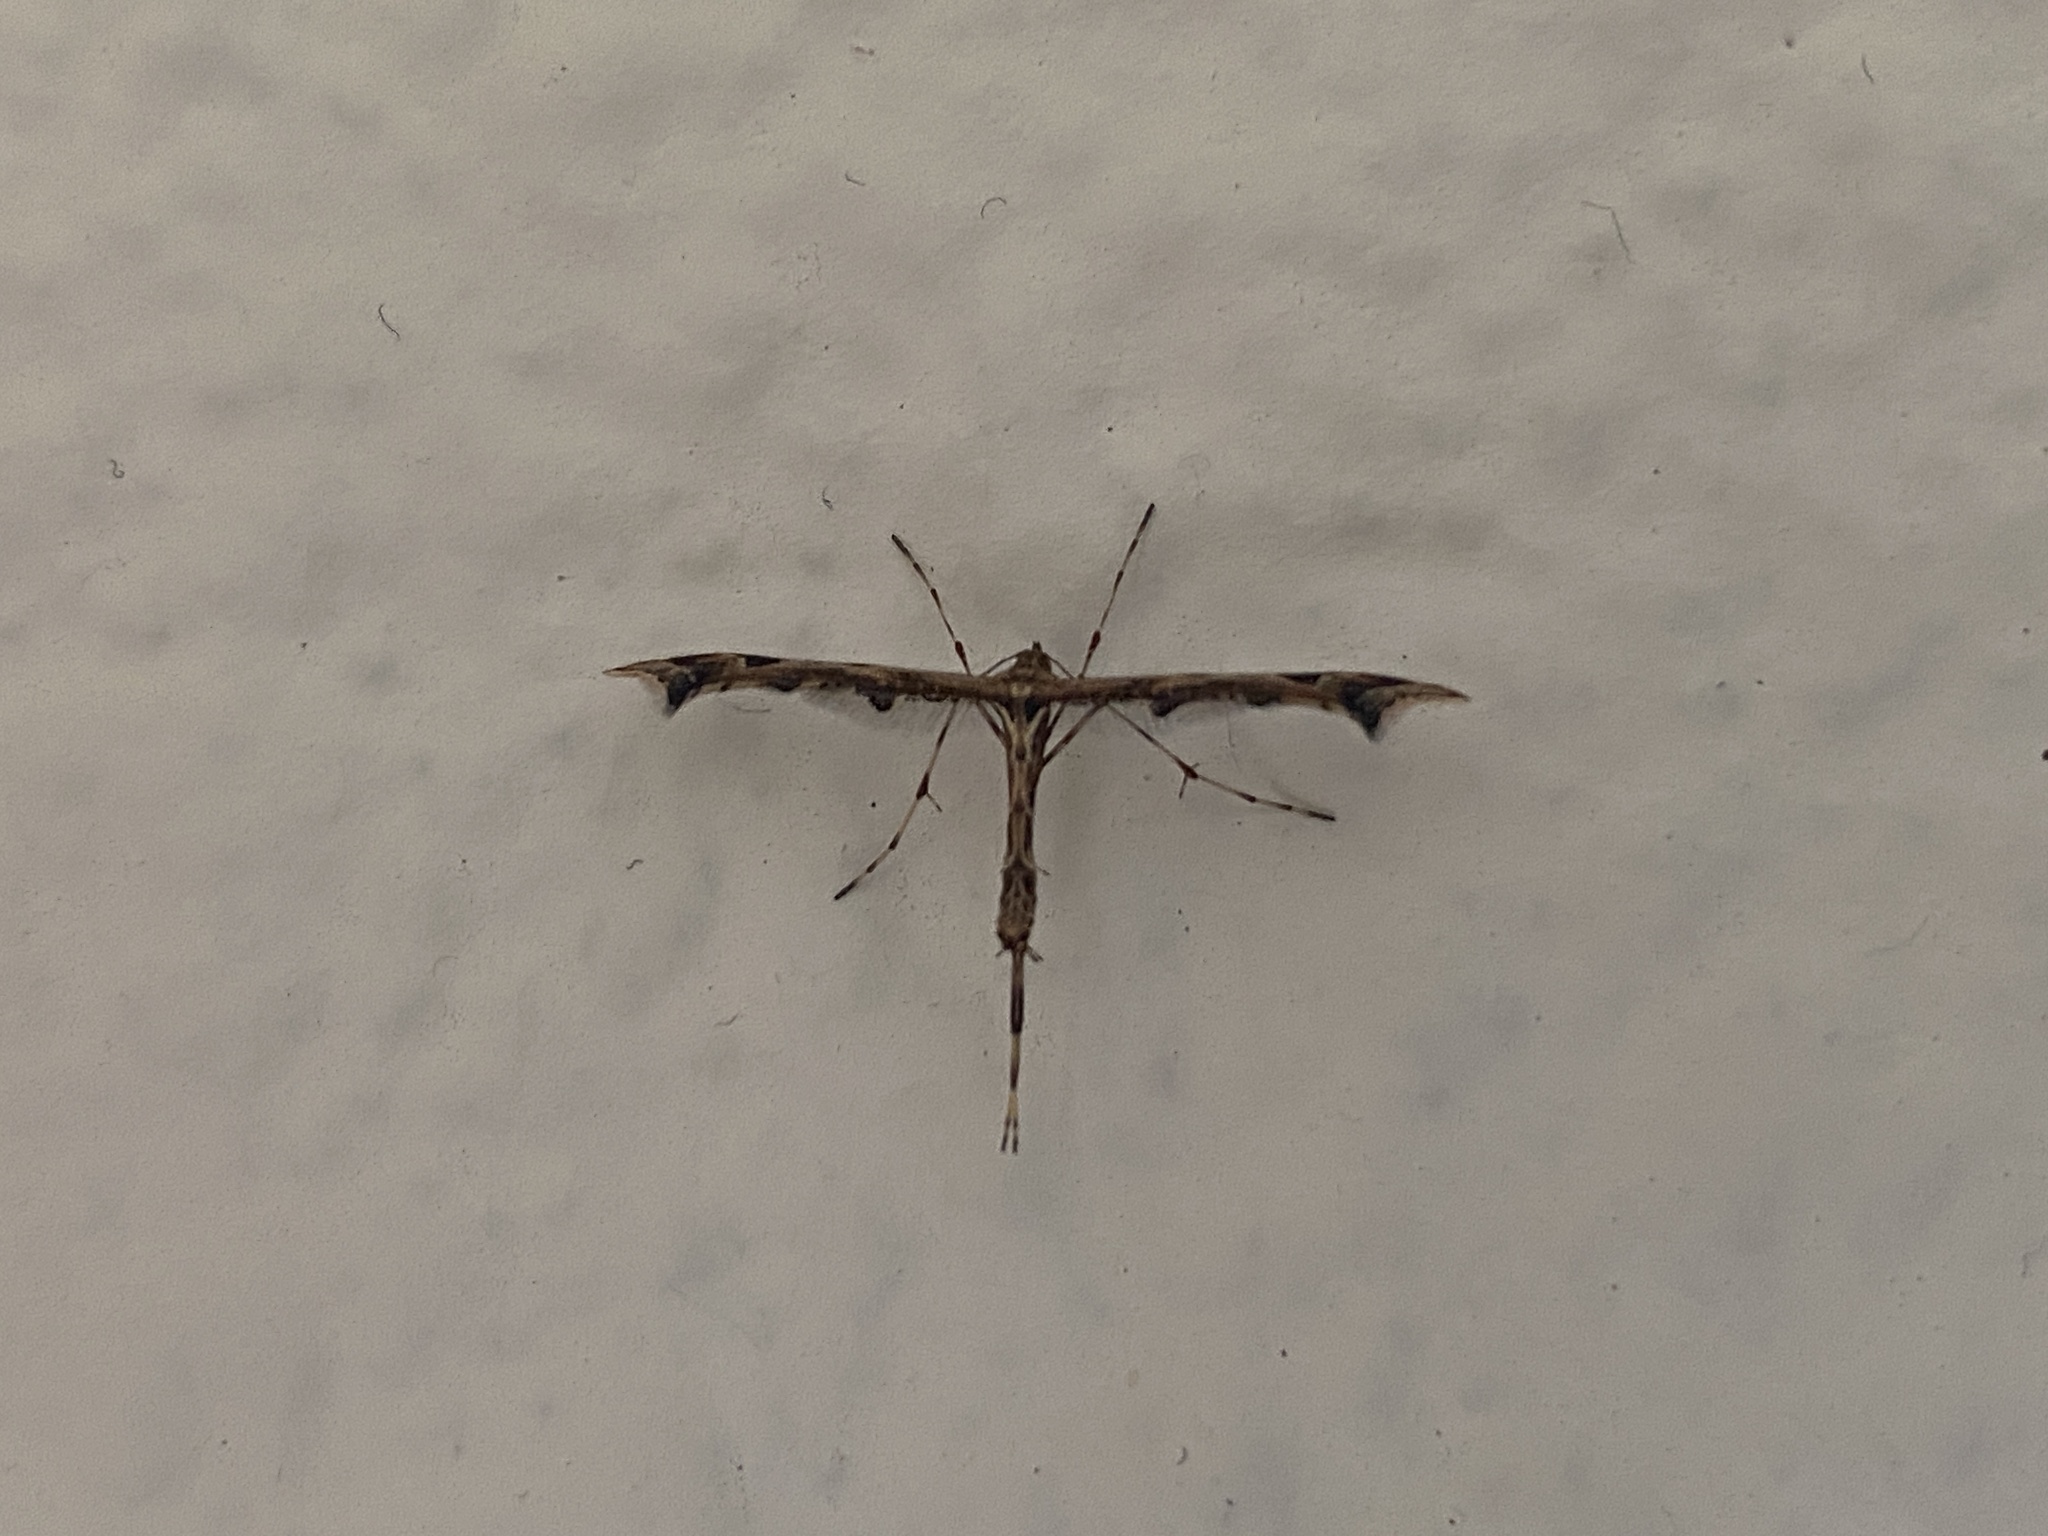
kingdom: Animalia
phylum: Arthropoda
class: Insecta
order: Lepidoptera
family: Pterophoridae
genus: Amblyptilia
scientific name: Amblyptilia acanthadactyla
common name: Beautiful plume
